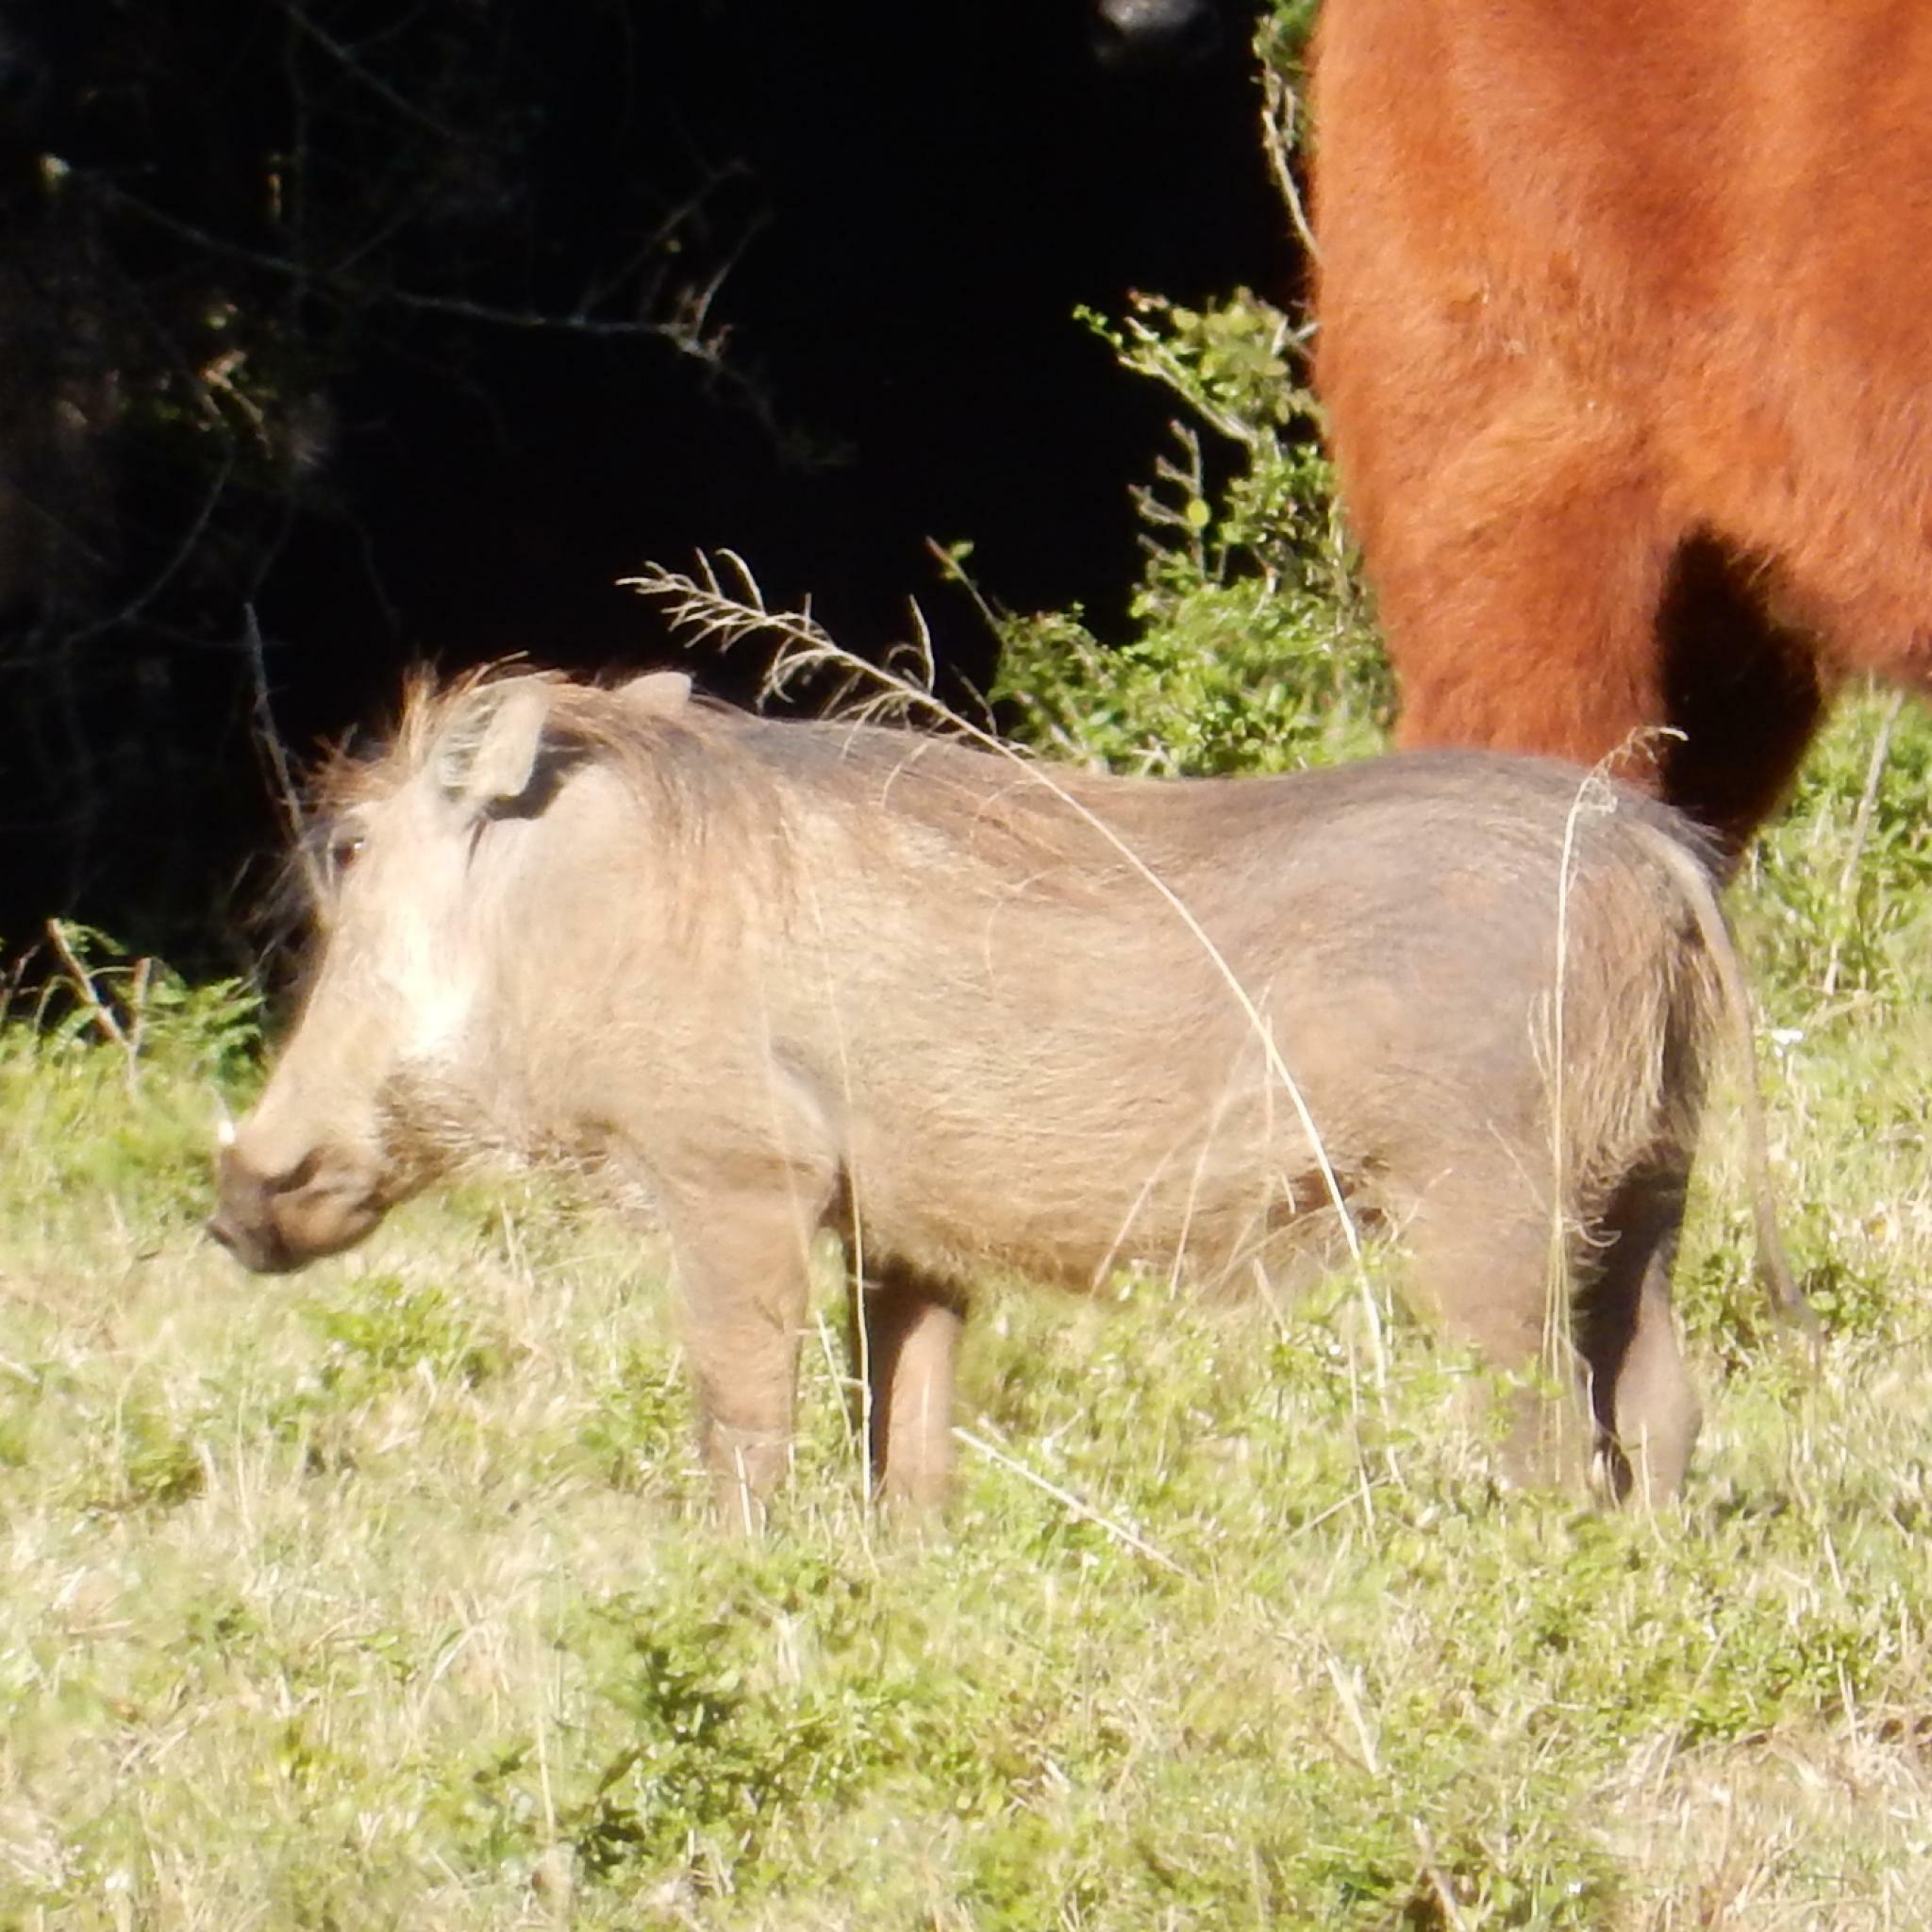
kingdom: Animalia
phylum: Chordata
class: Mammalia
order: Artiodactyla
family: Suidae
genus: Phacochoerus
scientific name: Phacochoerus africanus
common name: Common warthog
